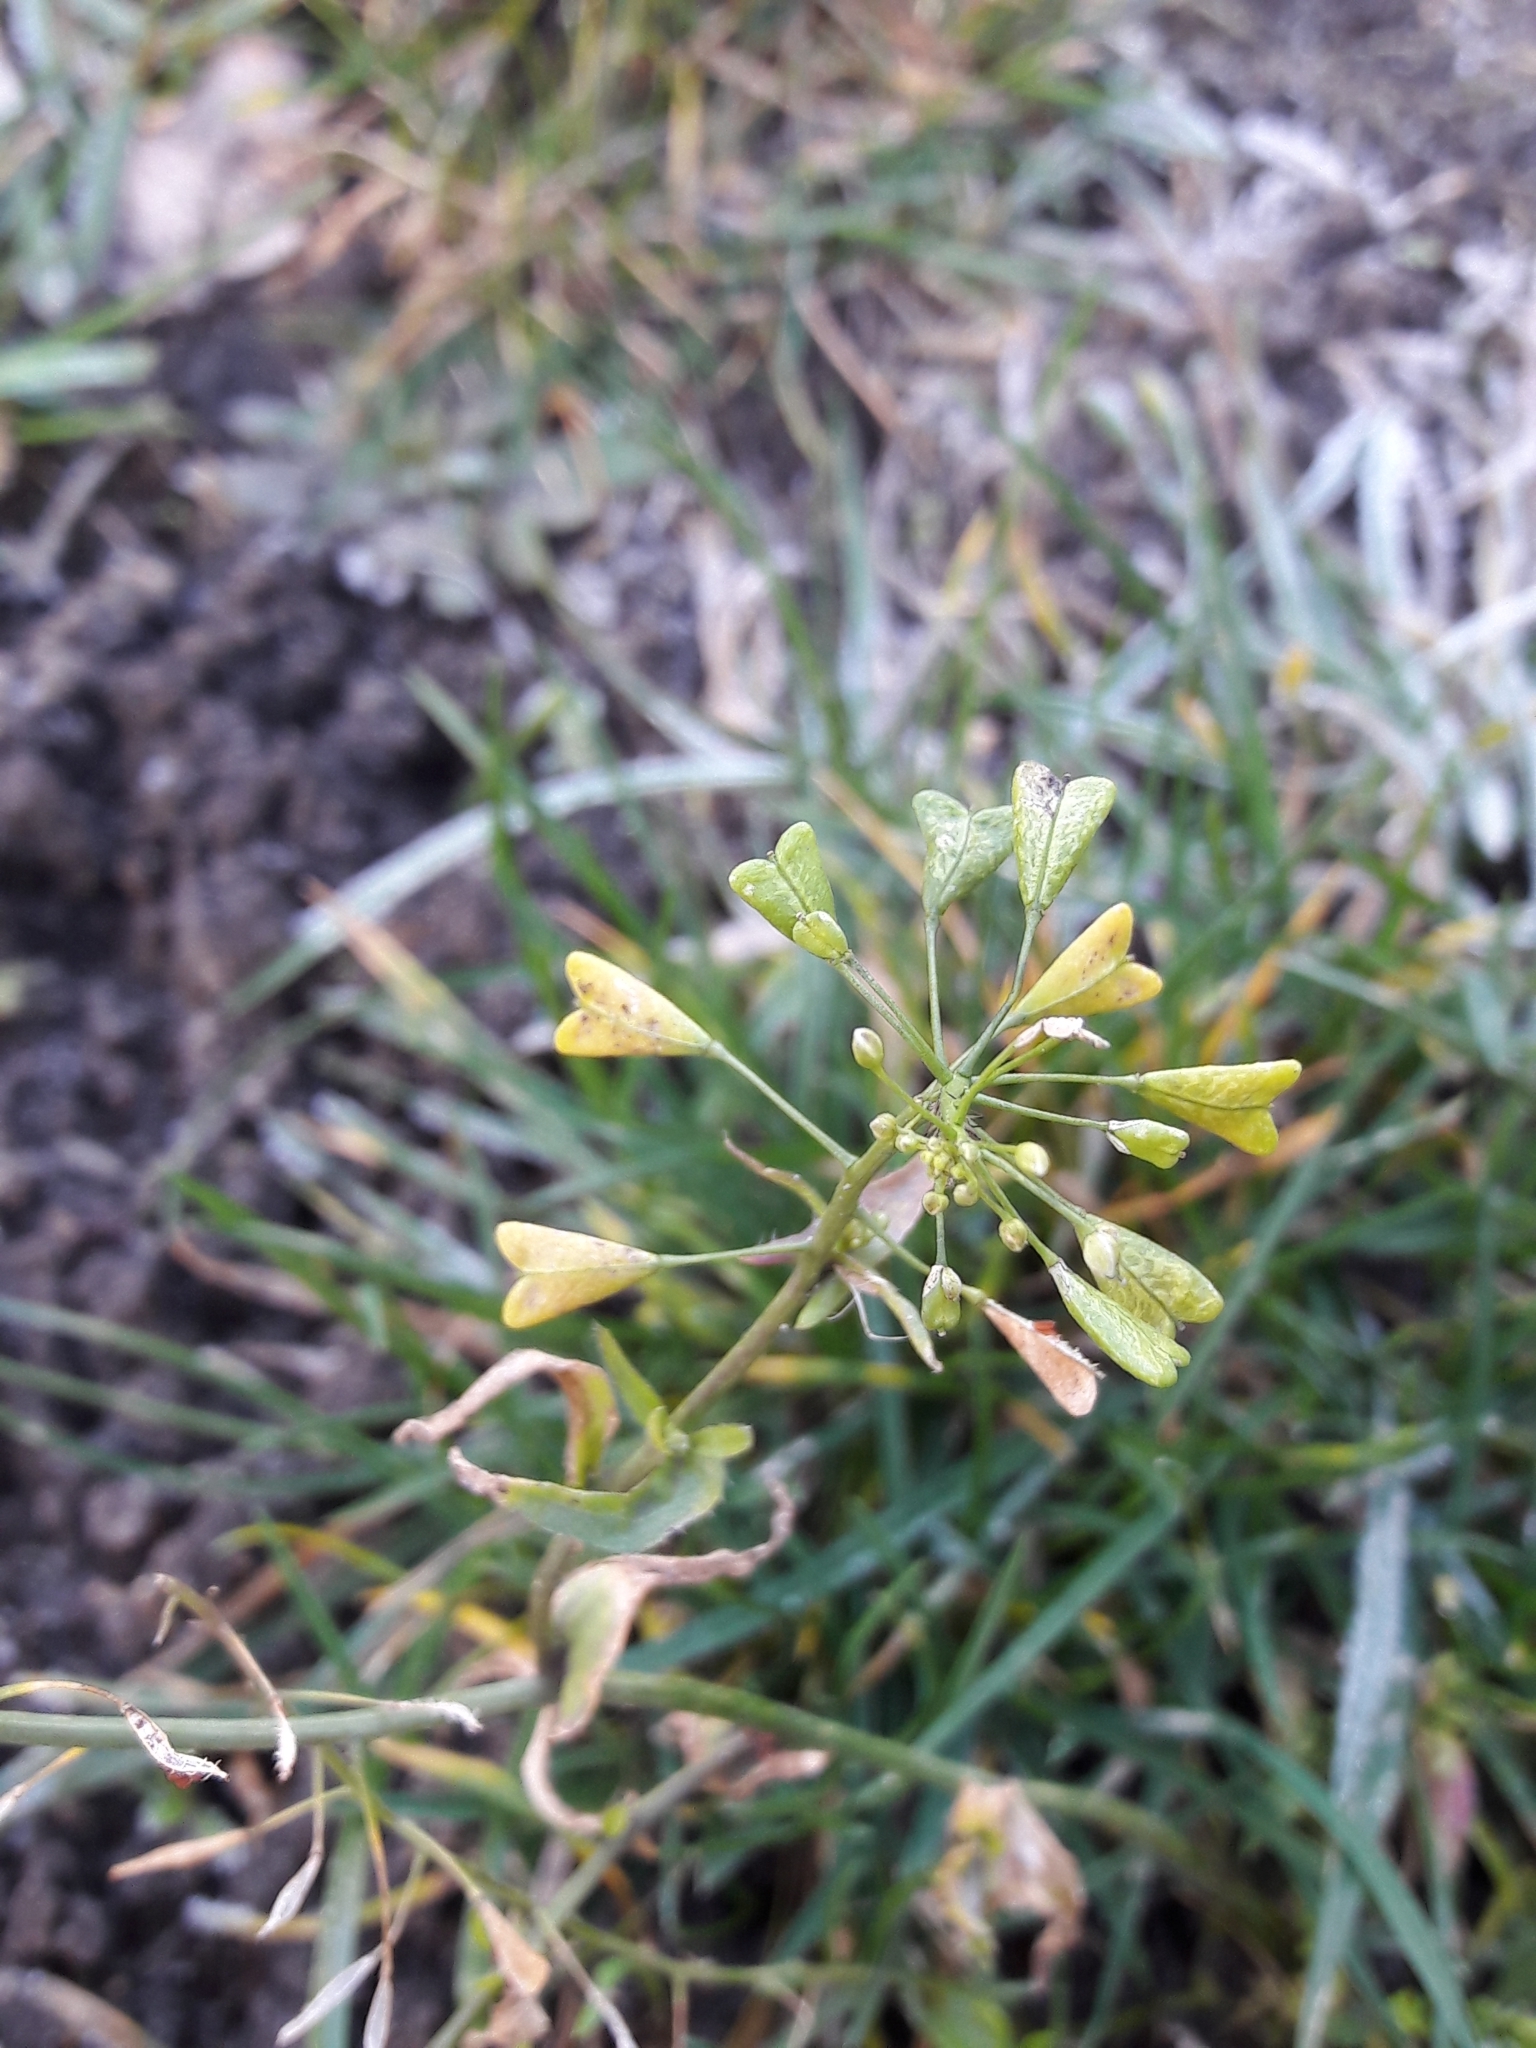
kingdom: Plantae
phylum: Tracheophyta
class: Magnoliopsida
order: Brassicales
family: Brassicaceae
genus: Capsella
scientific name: Capsella bursa-pastoris
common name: Shepherd's purse
